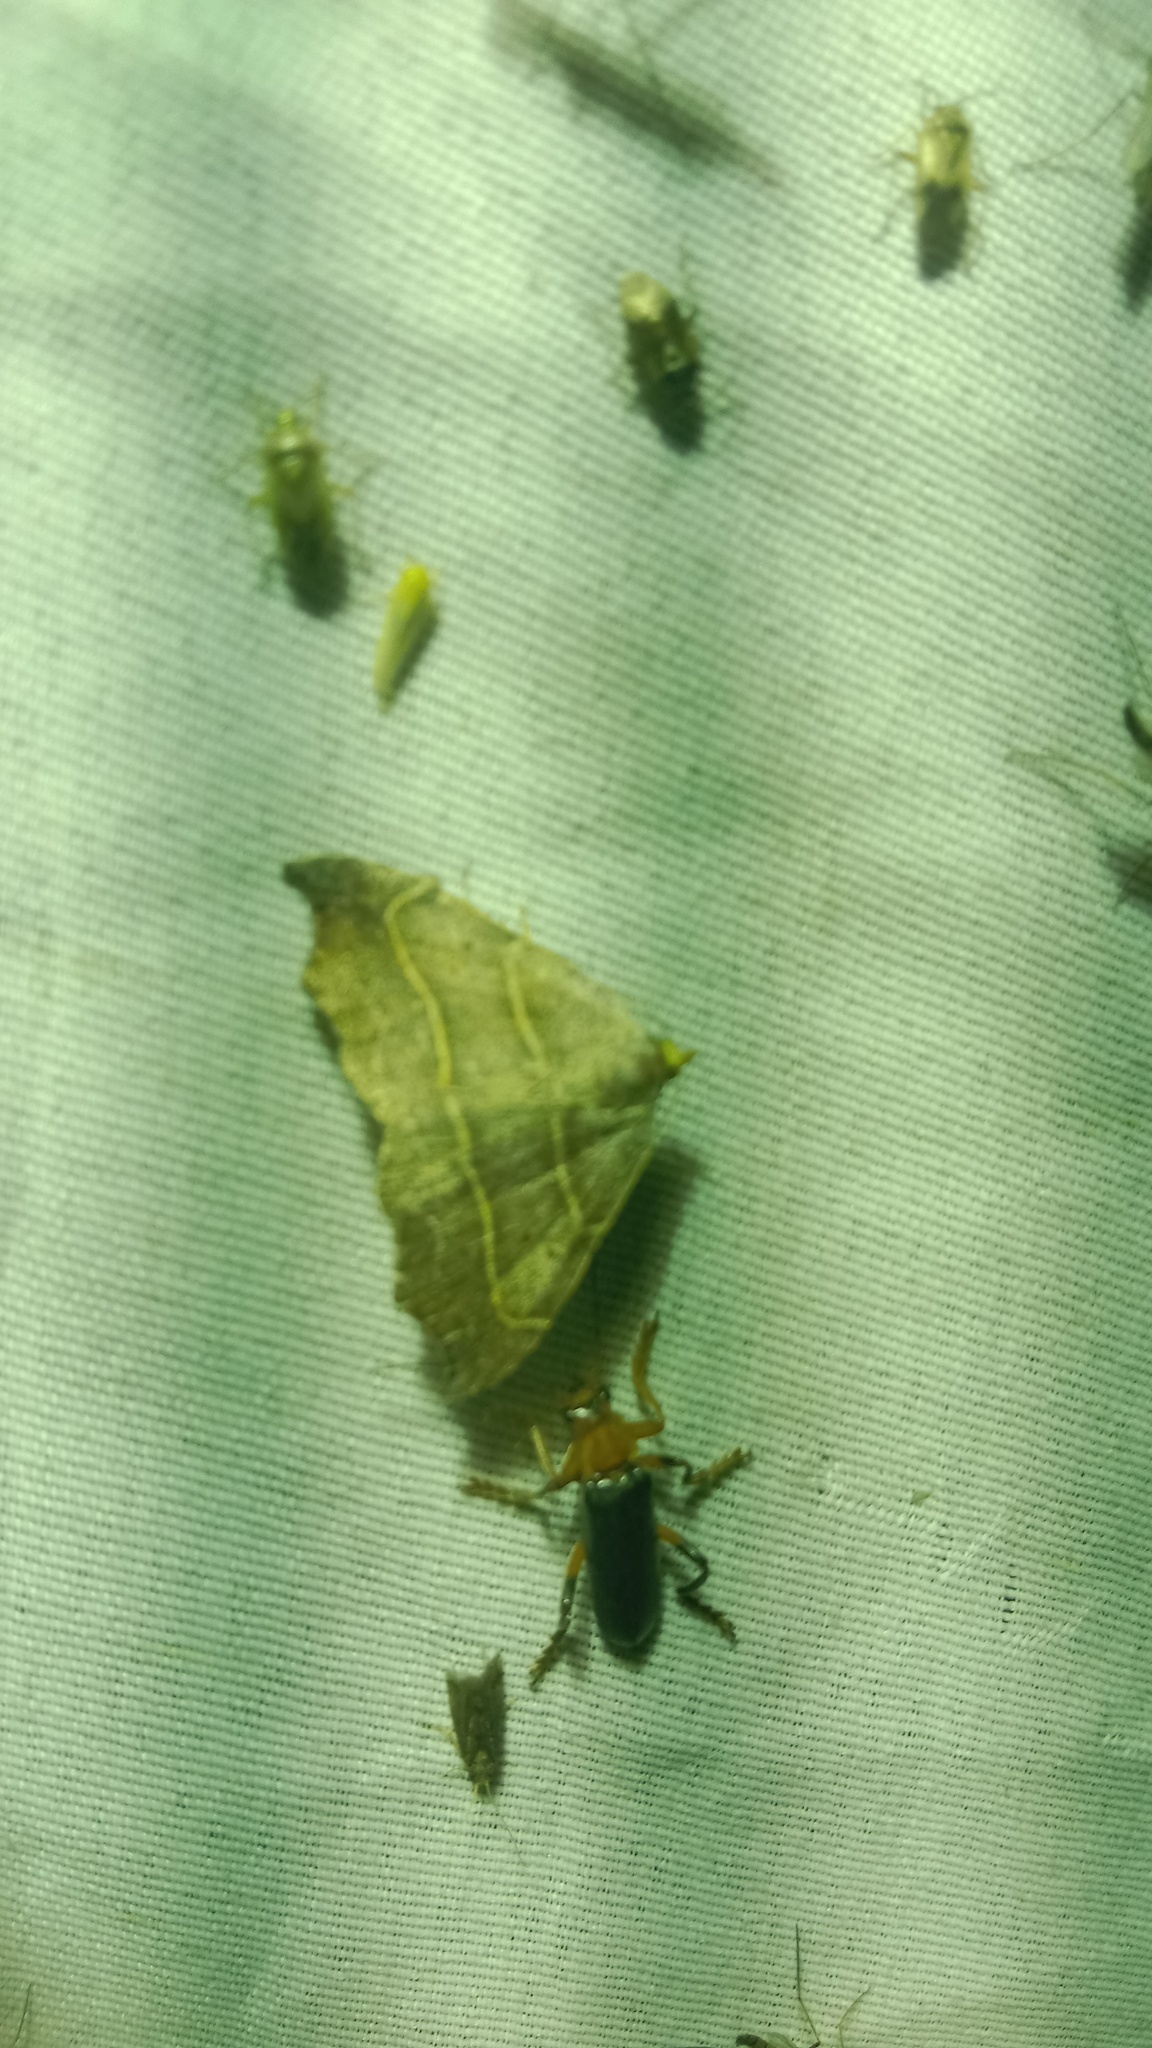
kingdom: Animalia
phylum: Arthropoda
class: Insecta
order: Lepidoptera
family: Erebidae
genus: Laspeyria
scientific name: Laspeyria flexula
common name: Beautiful hook-tip
